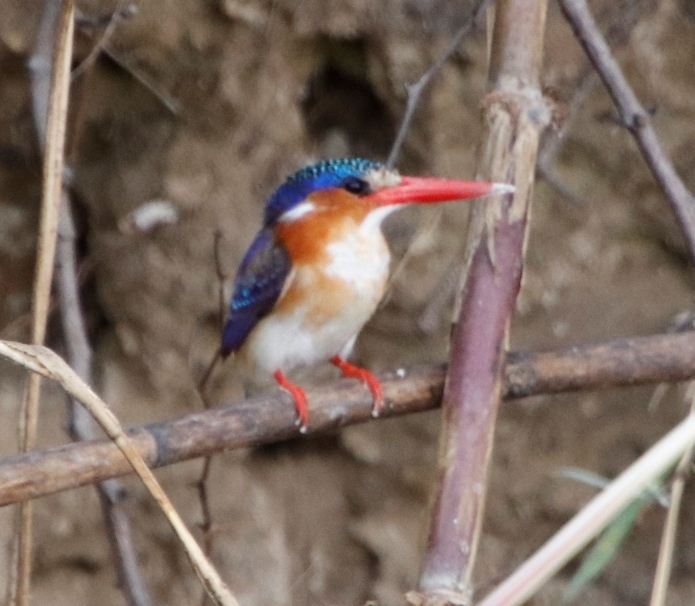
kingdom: Animalia
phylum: Chordata
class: Aves
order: Coraciiformes
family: Alcedinidae
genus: Corythornis
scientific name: Corythornis cristatus
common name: Malachite kingfisher
